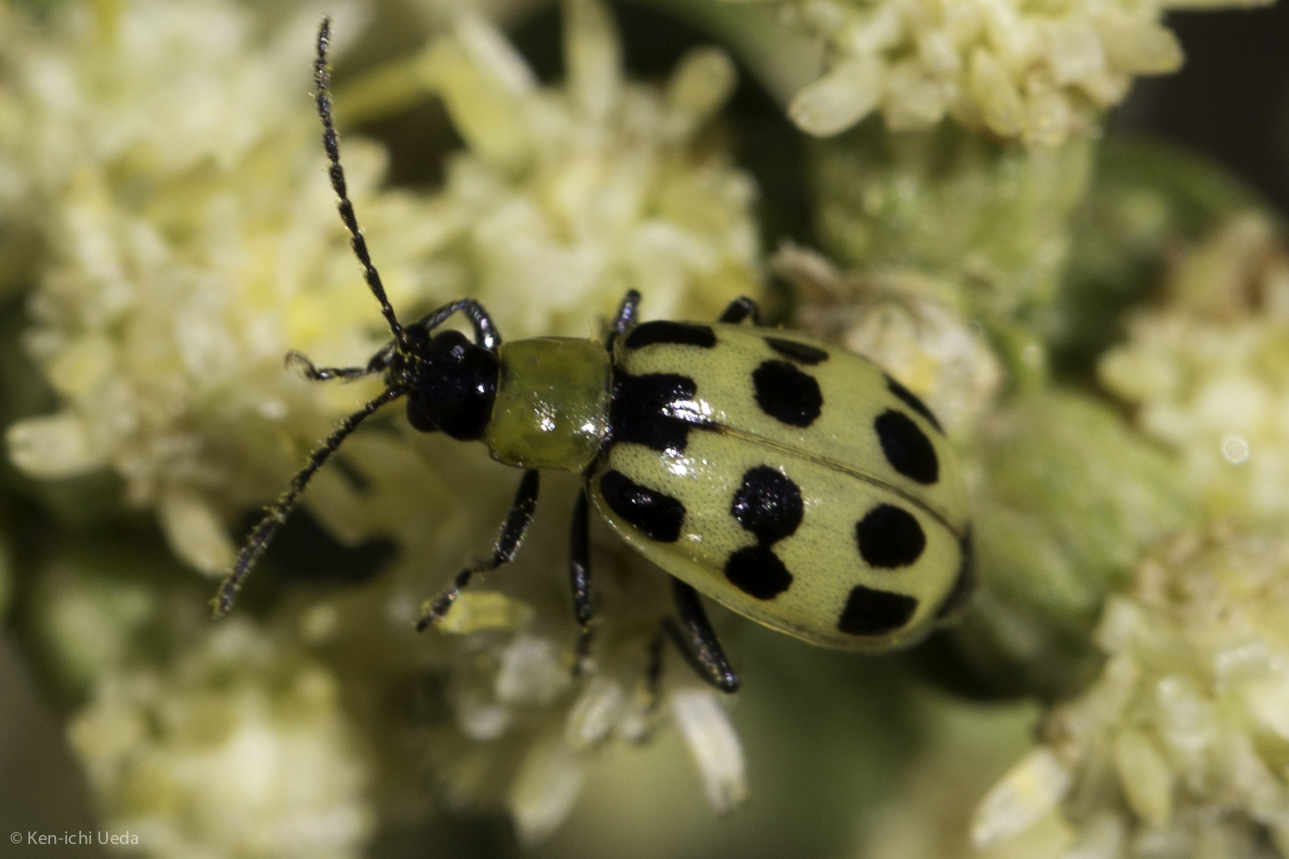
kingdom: Animalia
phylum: Arthropoda
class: Insecta
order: Coleoptera
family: Chrysomelidae
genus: Diabrotica
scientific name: Diabrotica undecimpunctata
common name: Spotted cucumber beetle
